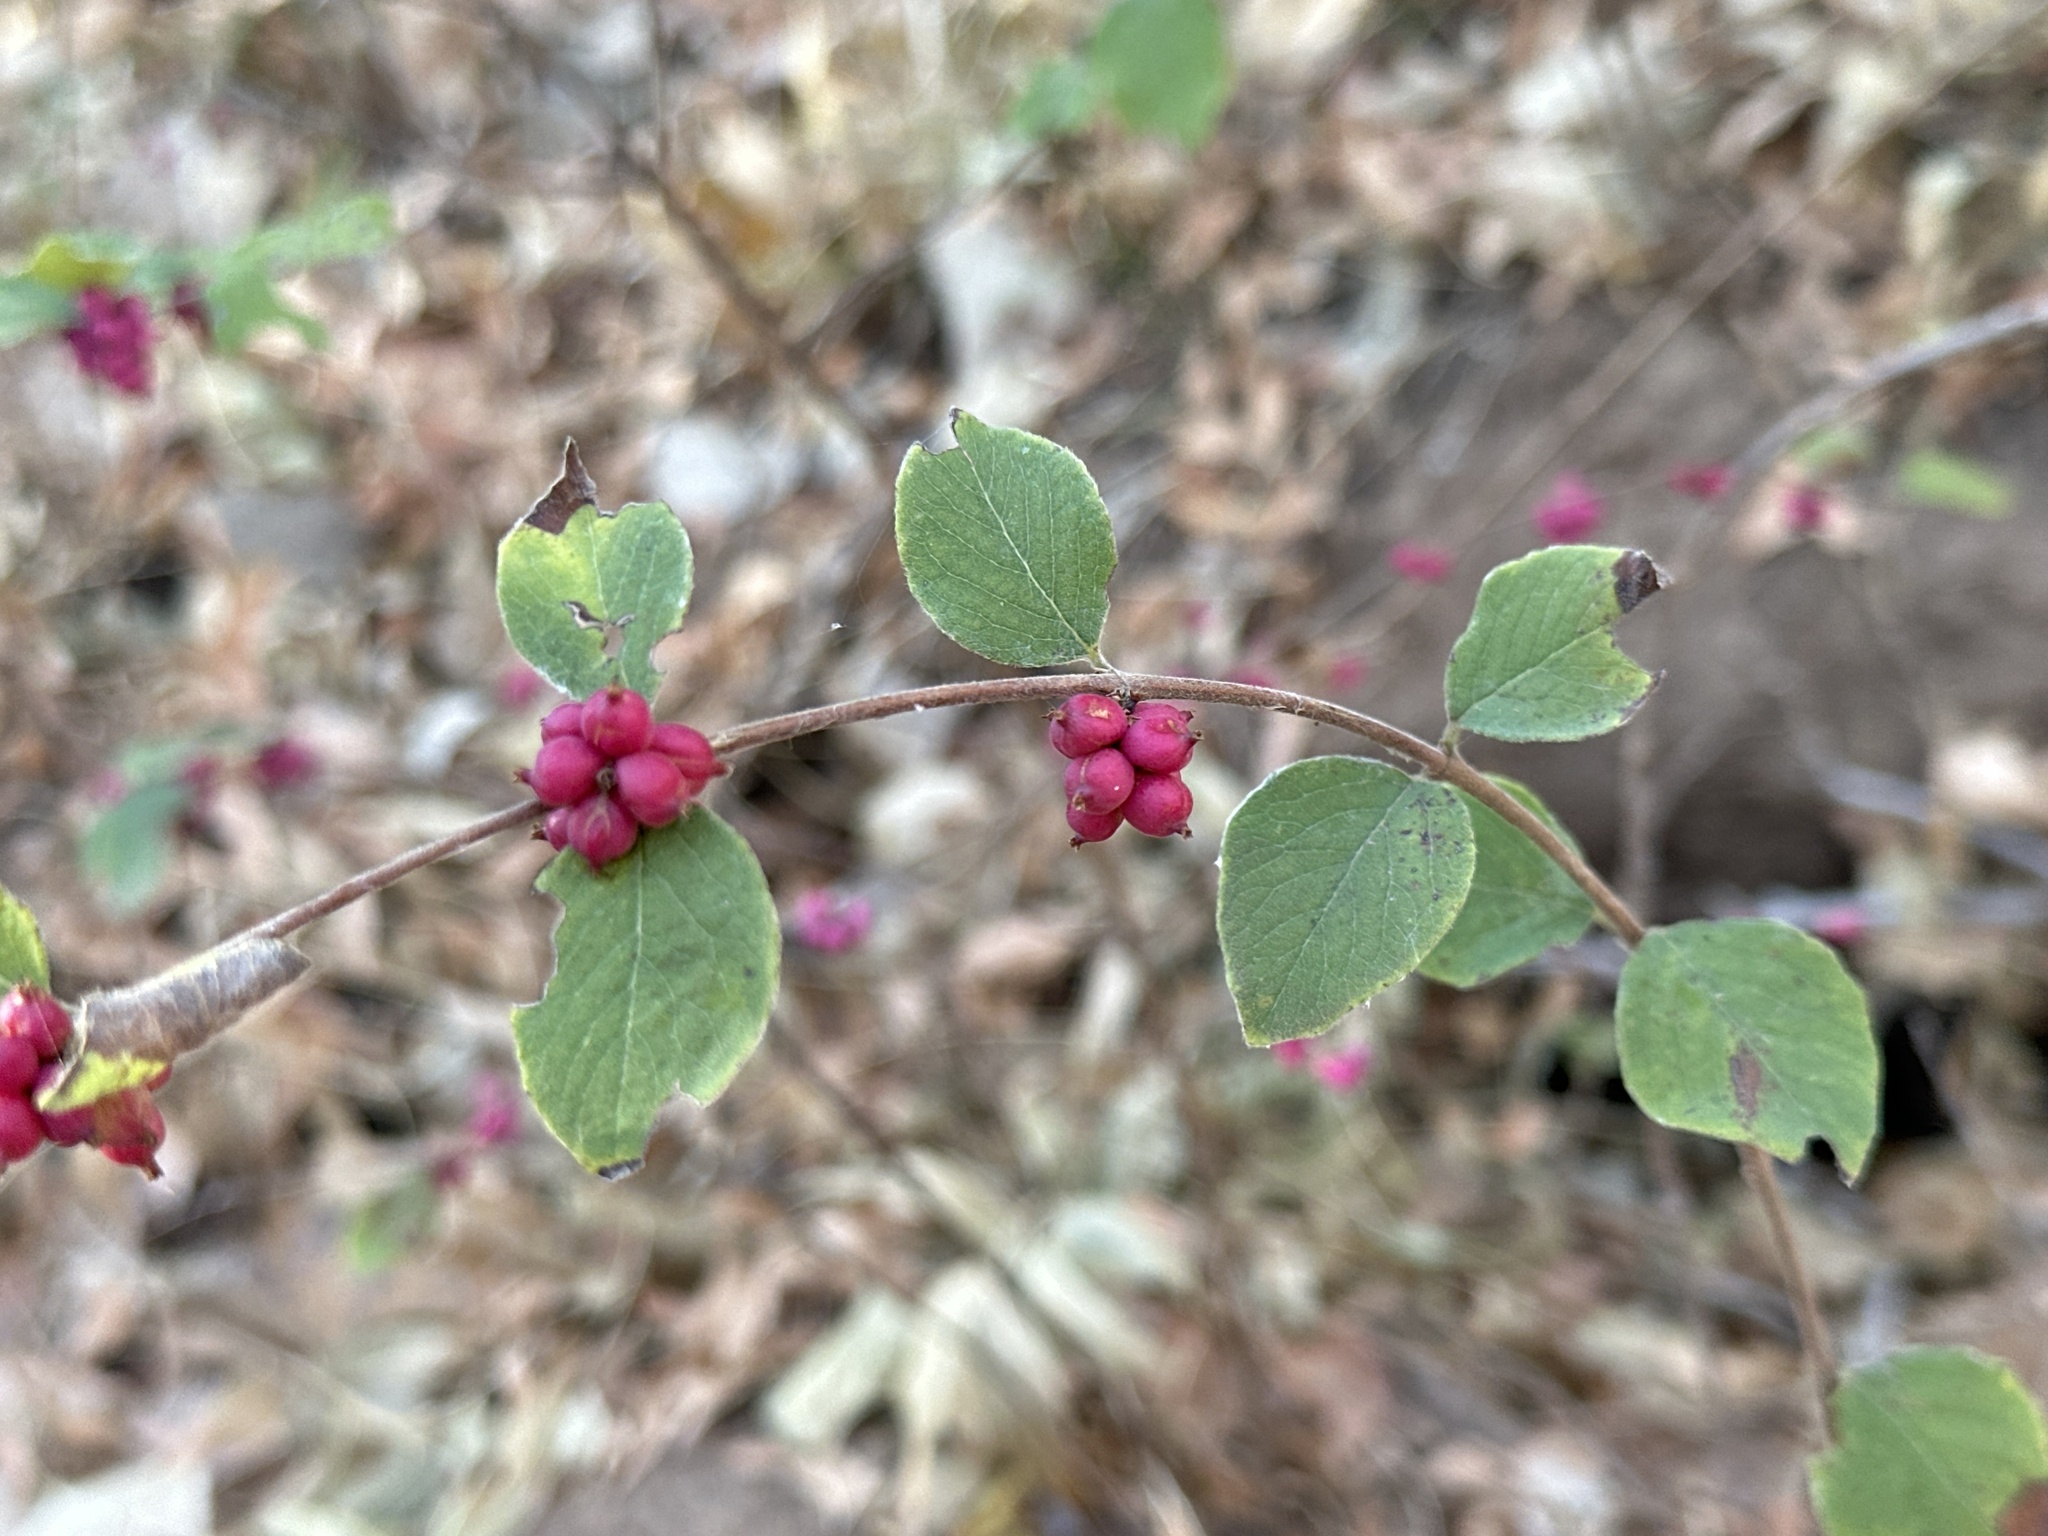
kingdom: Plantae
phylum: Tracheophyta
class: Magnoliopsida
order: Dipsacales
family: Caprifoliaceae
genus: Symphoricarpos
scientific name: Symphoricarpos orbiculatus
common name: Coralberry
